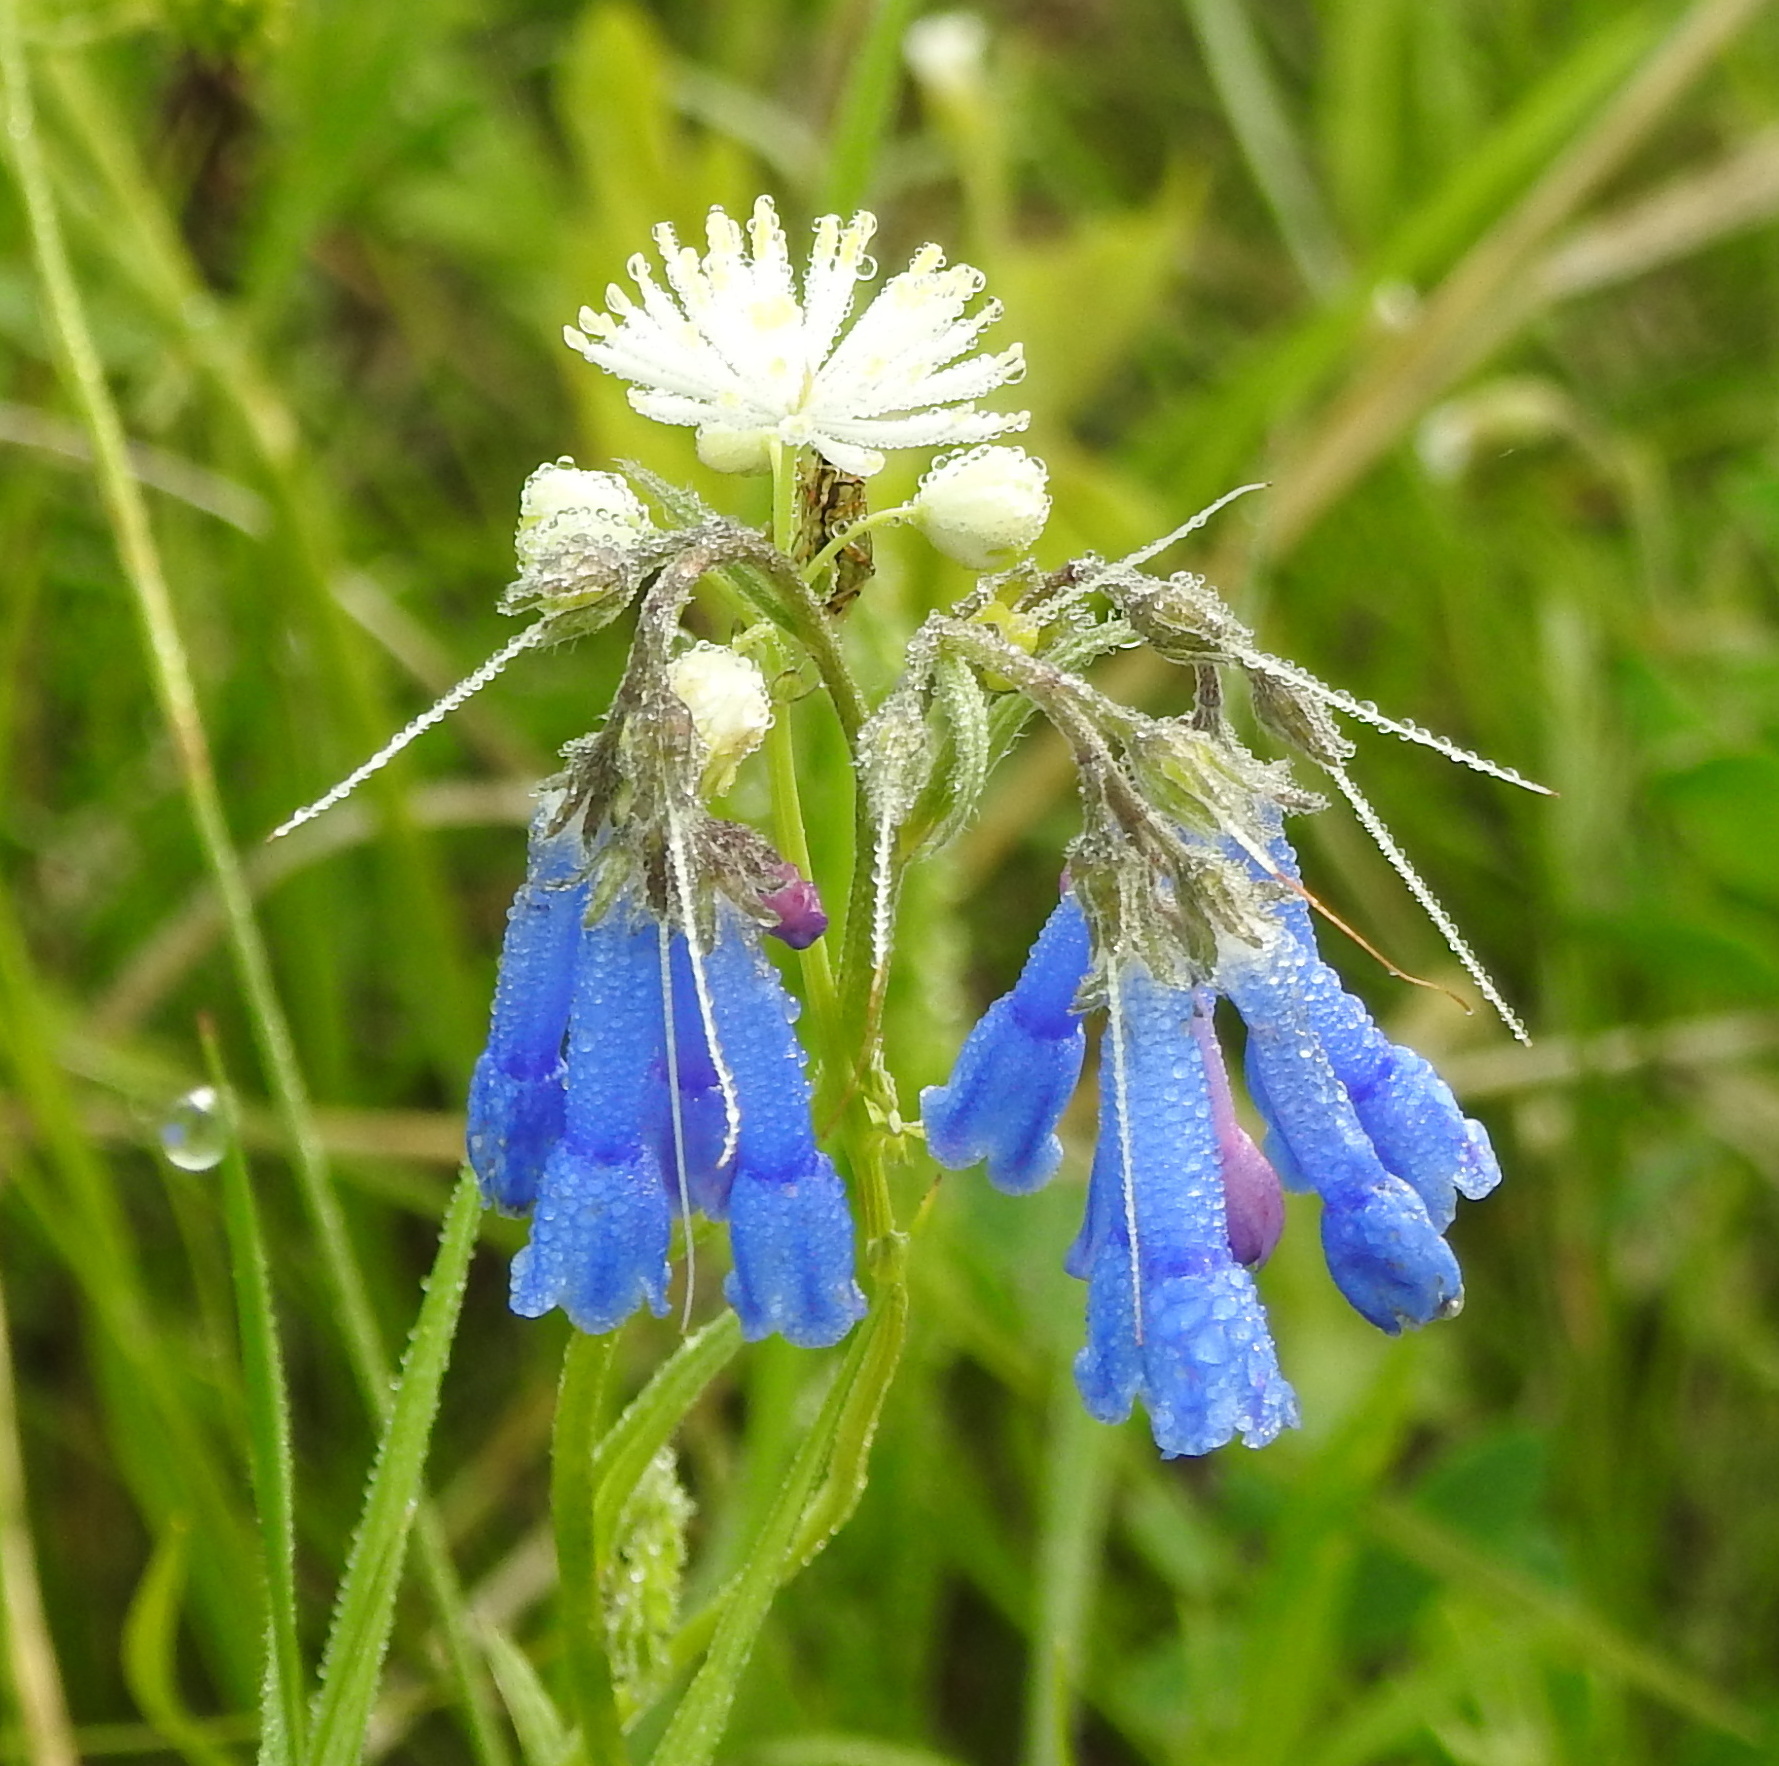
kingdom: Plantae
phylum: Tracheophyta
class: Magnoliopsida
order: Boraginales
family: Boraginaceae
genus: Mertensia
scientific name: Mertensia davurica
